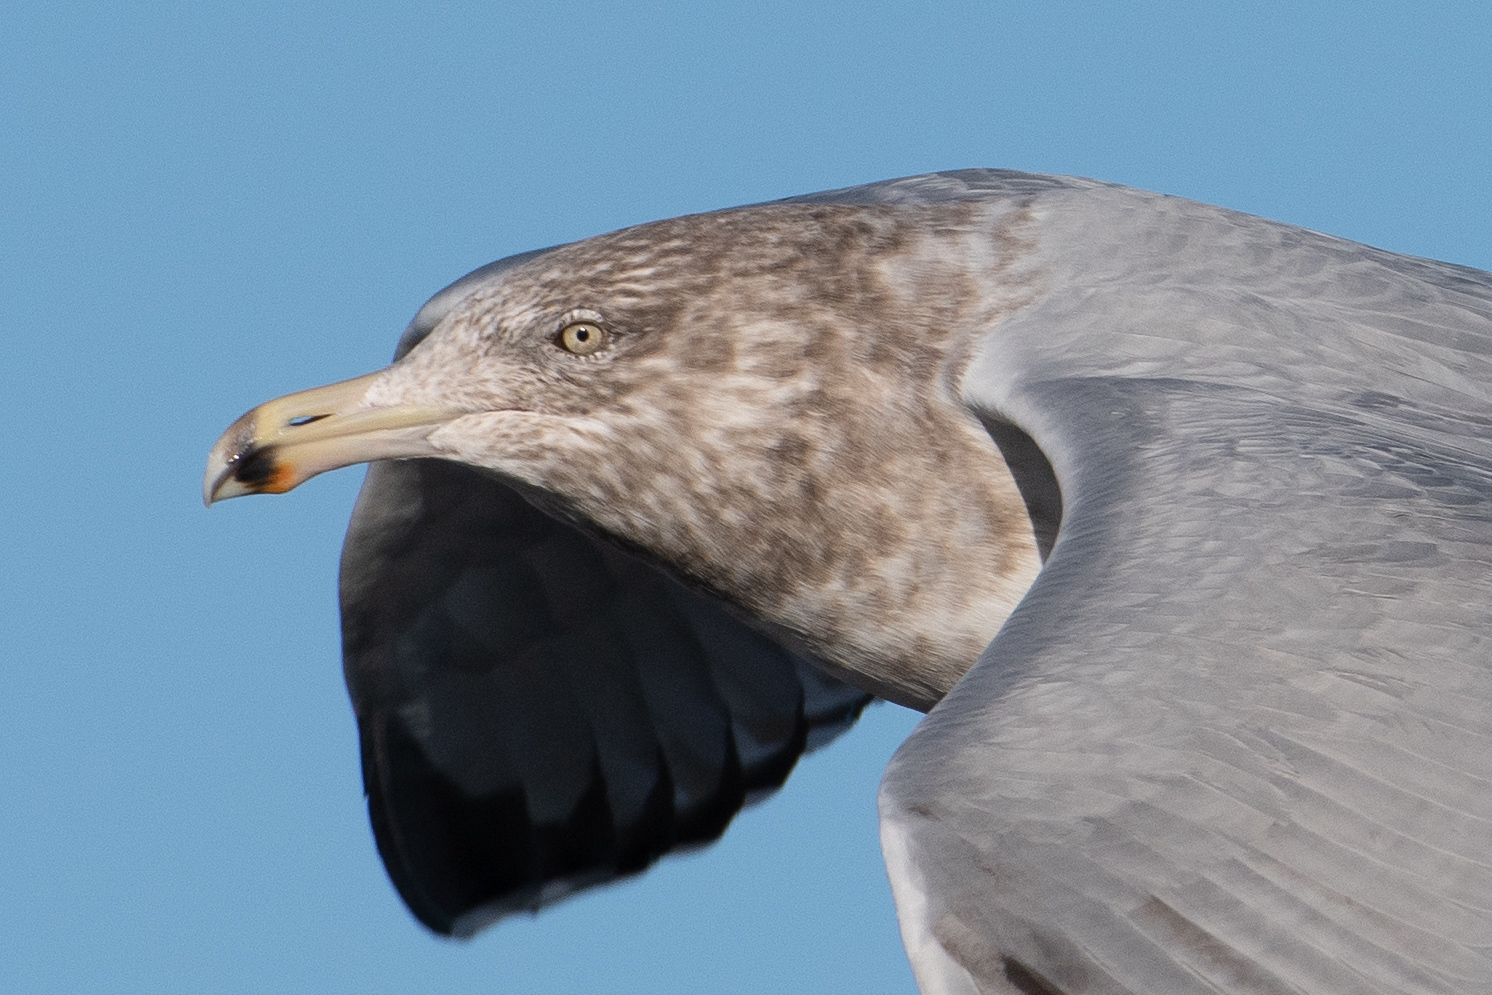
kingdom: Animalia
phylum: Chordata
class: Aves
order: Charadriiformes
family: Laridae
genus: Larus
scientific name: Larus argentatus
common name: Herring gull
